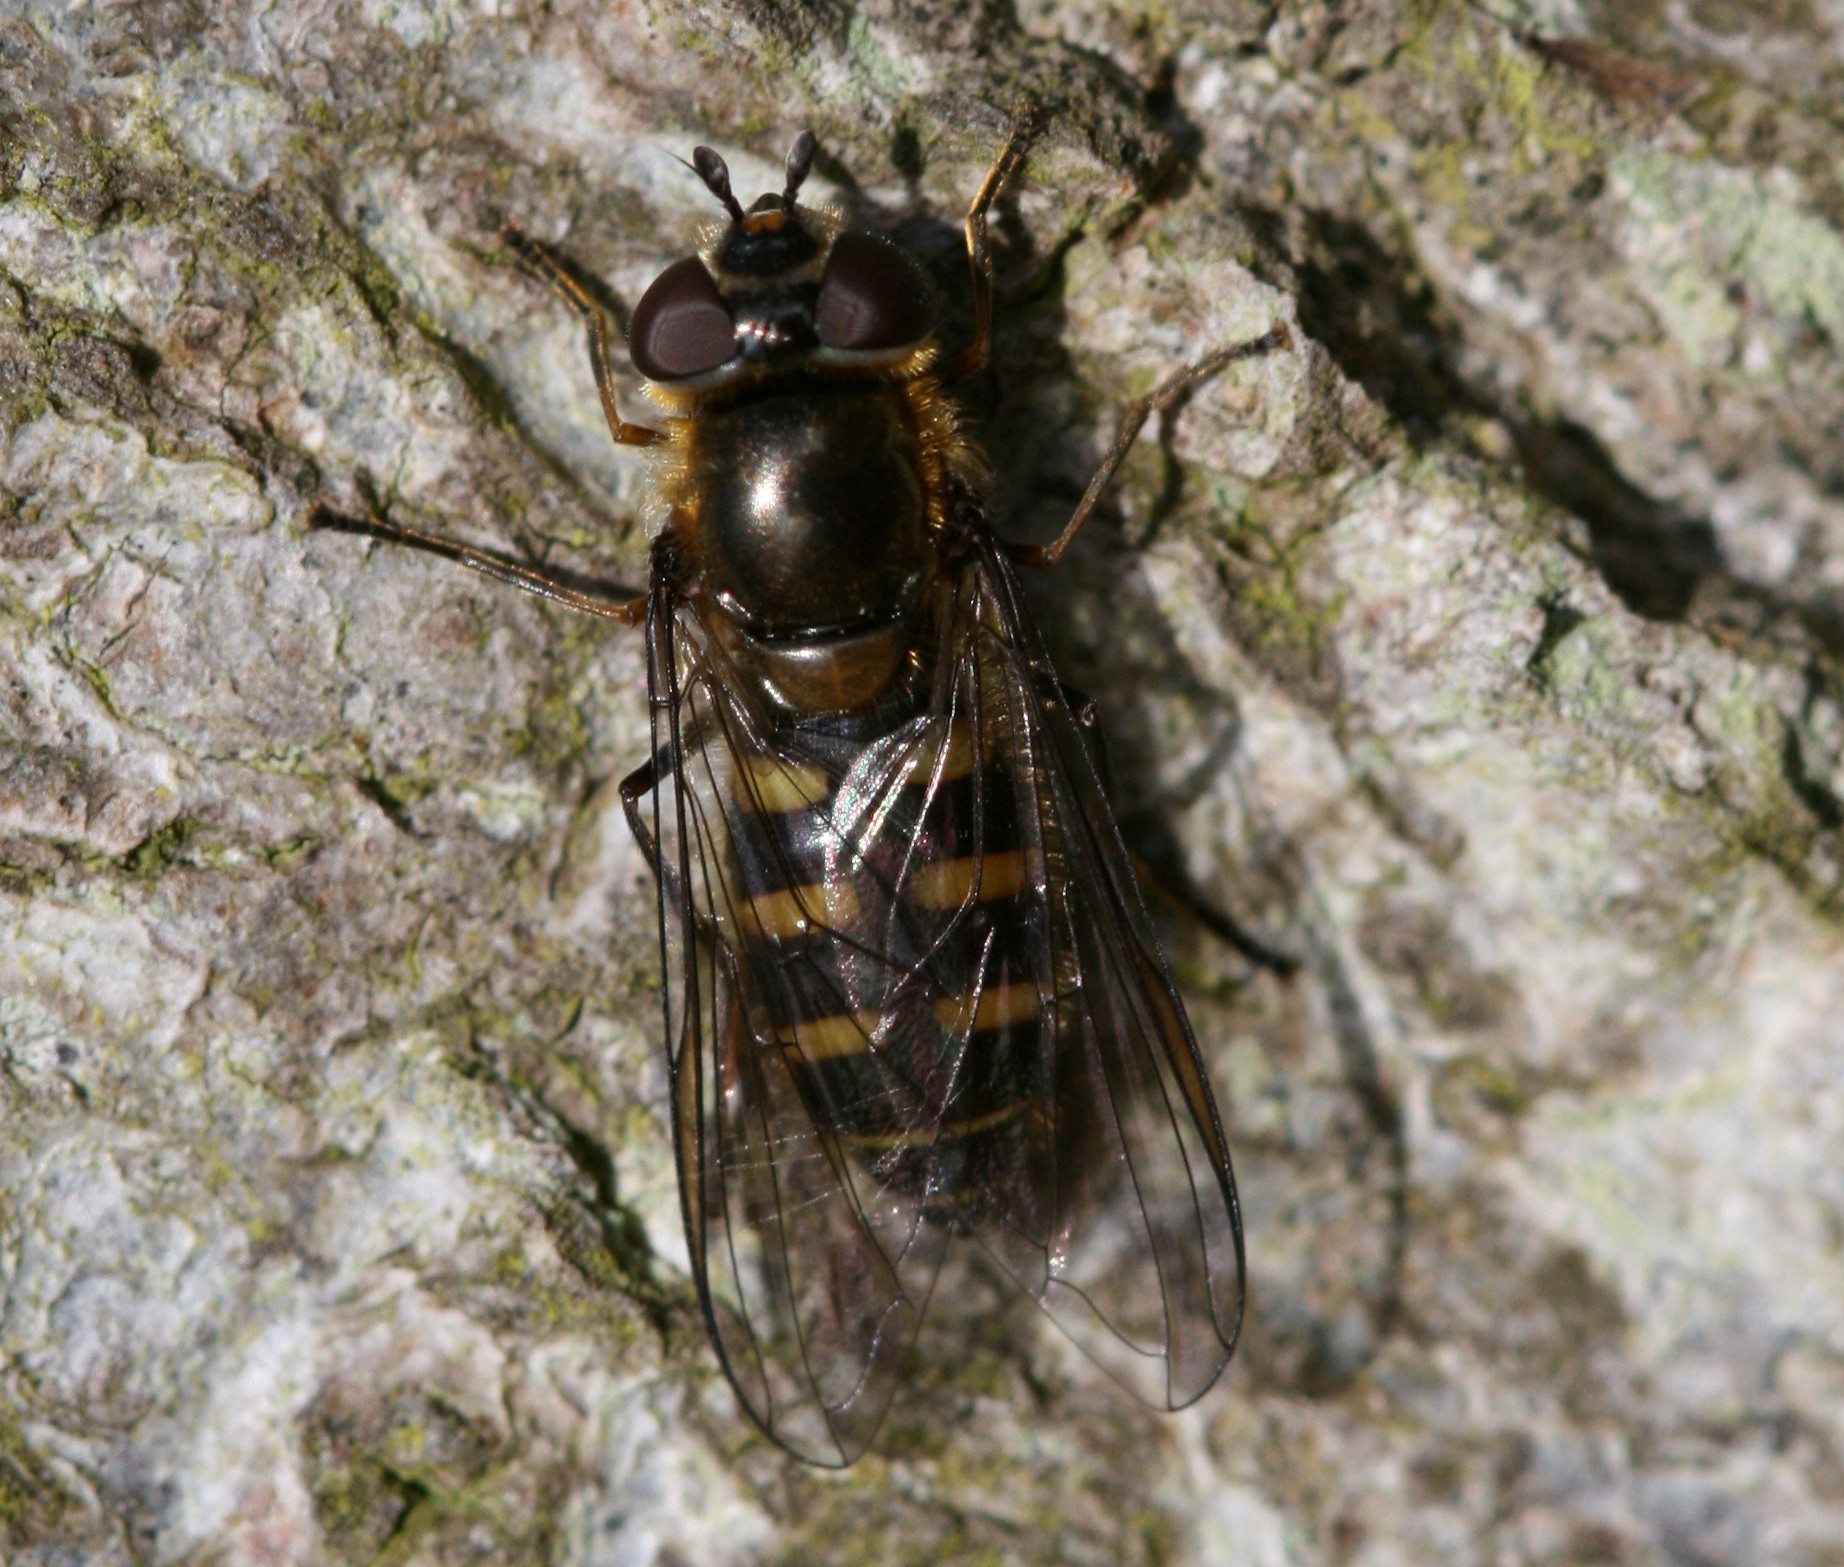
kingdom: Animalia
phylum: Arthropoda
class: Insecta
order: Diptera
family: Syrphidae
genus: Melangyna
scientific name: Melangyna lasiophthalma
